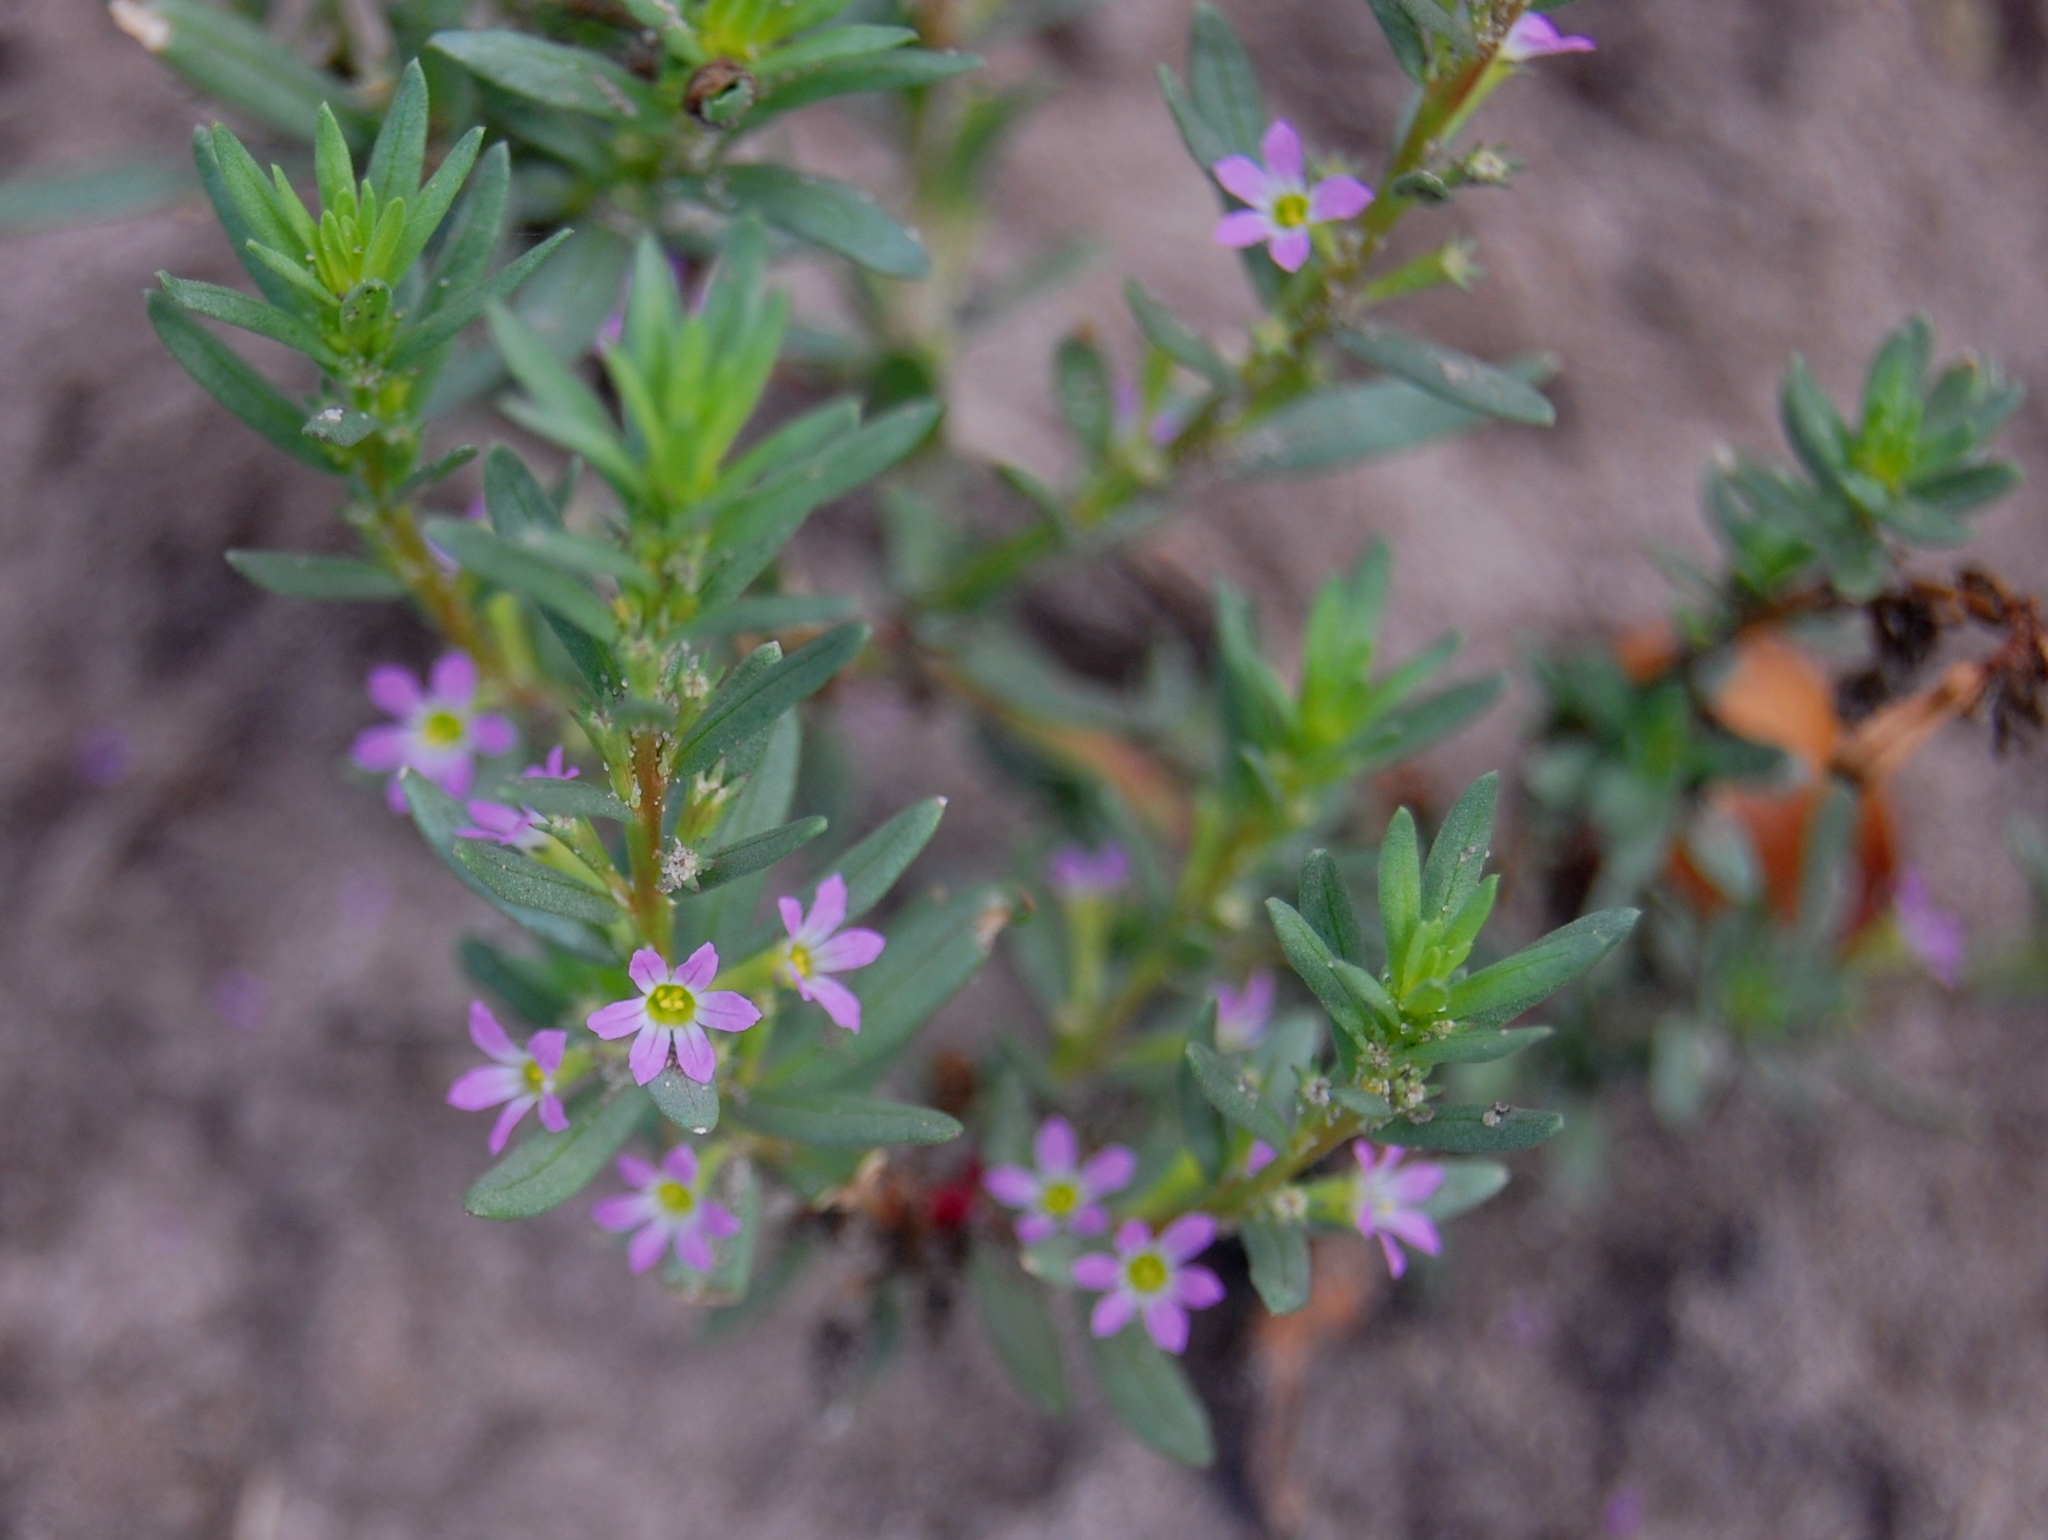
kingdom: Plantae
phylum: Tracheophyta
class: Magnoliopsida
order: Myrtales
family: Lythraceae
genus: Lythrum
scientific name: Lythrum hyssopifolia
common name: Grass-poly
